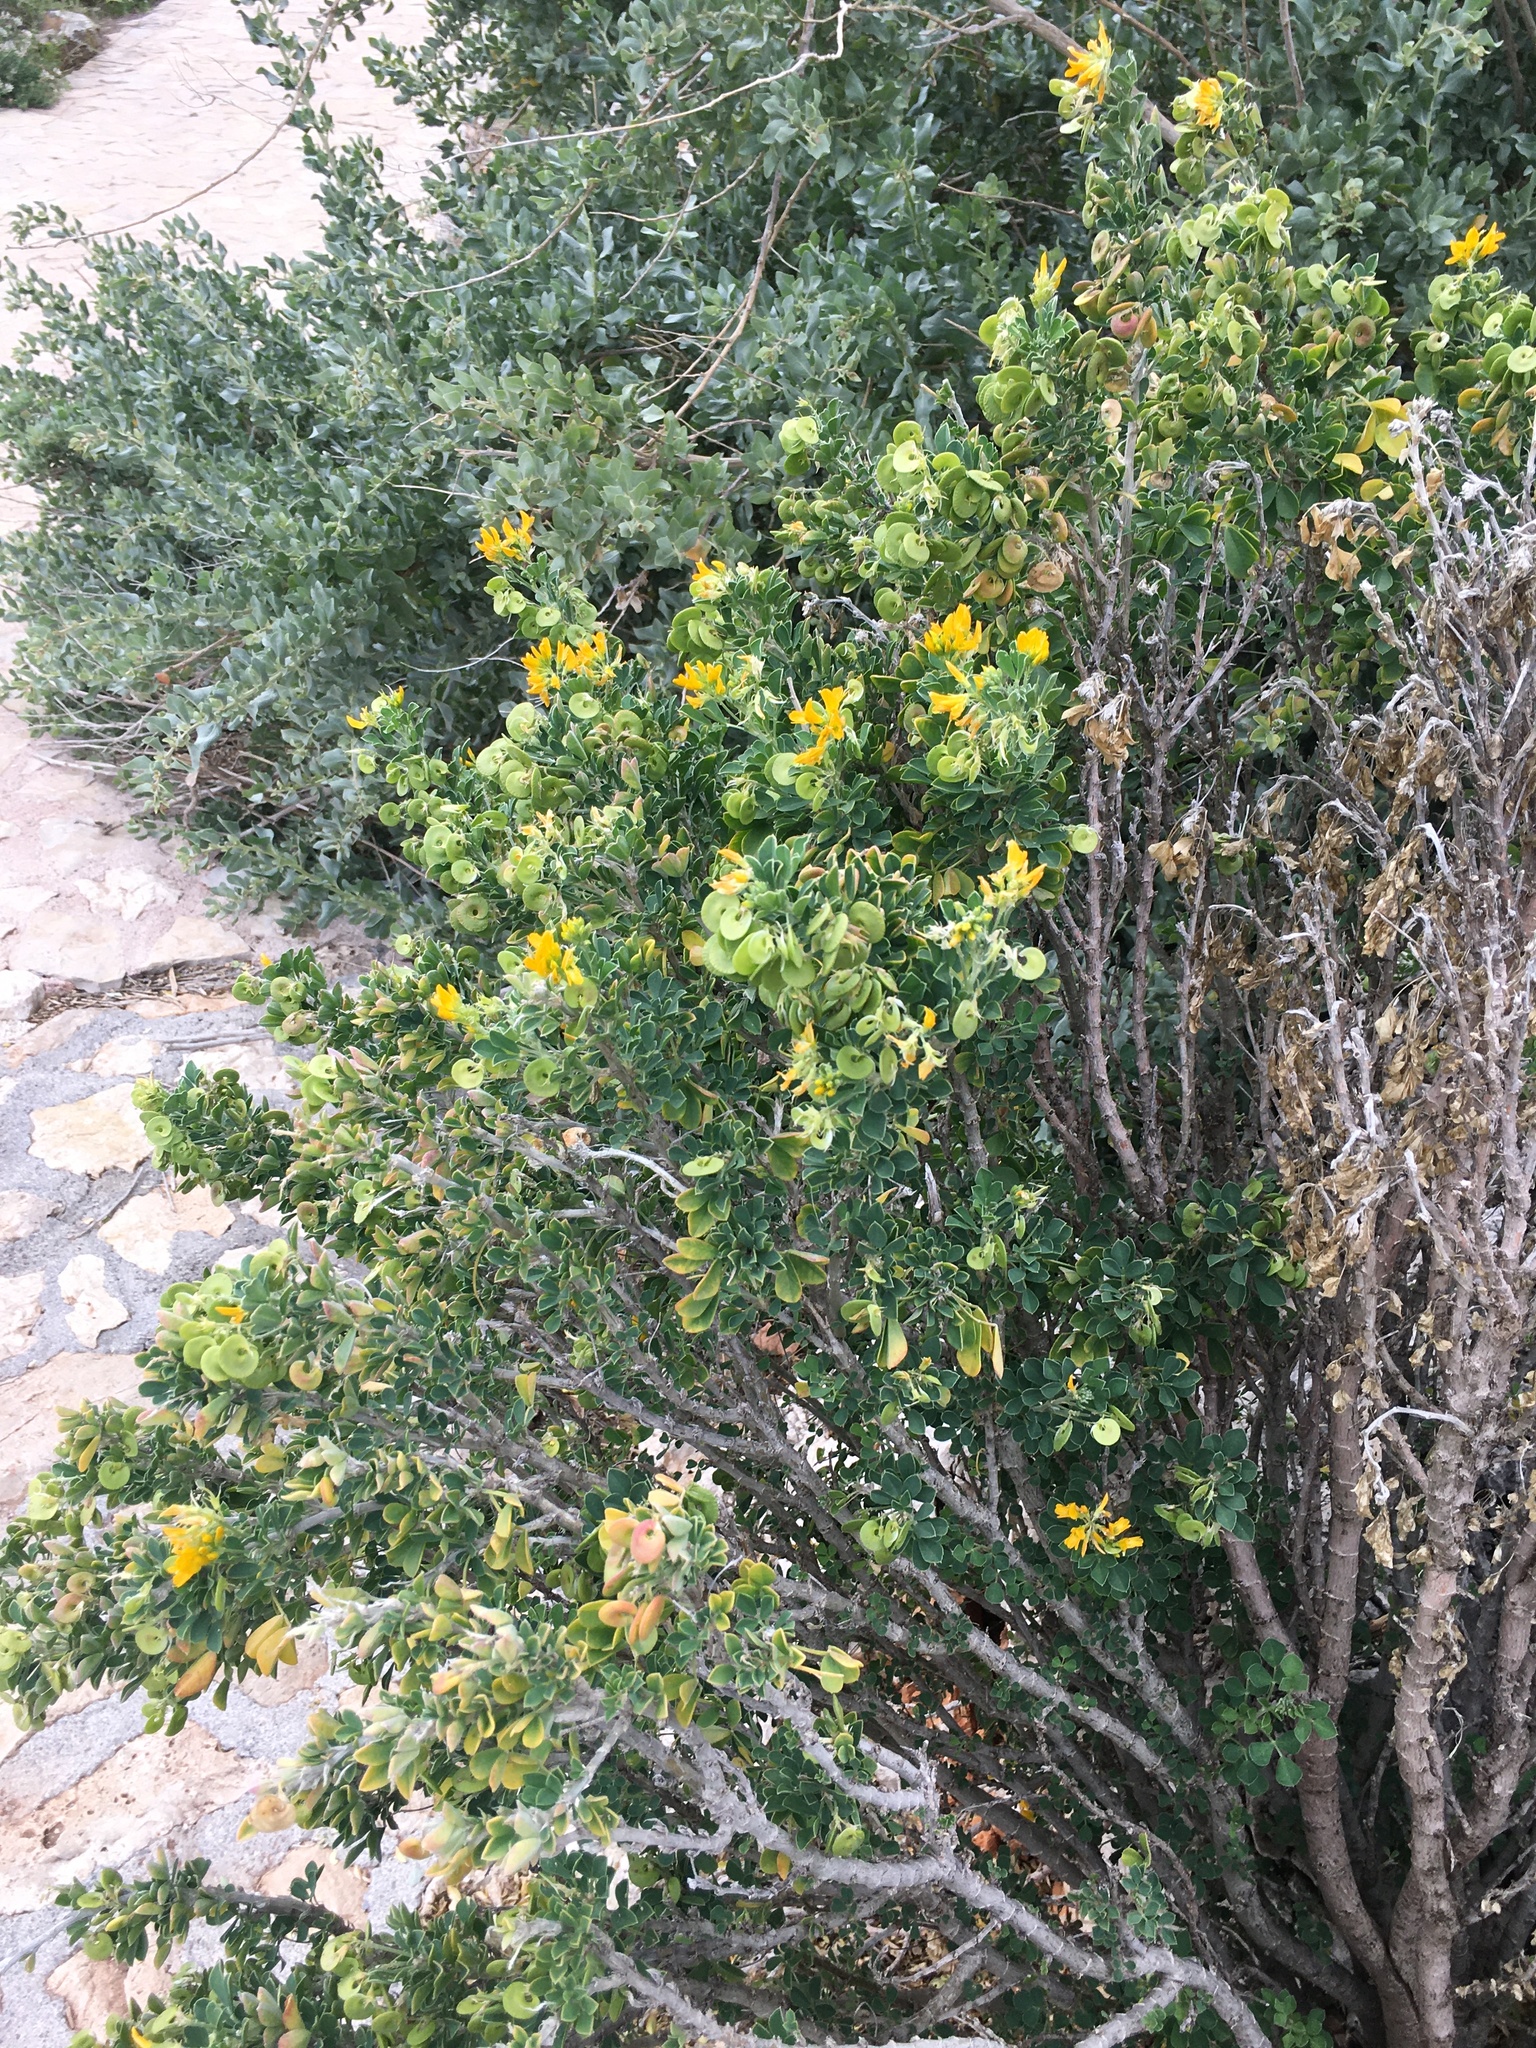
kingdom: Plantae
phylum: Tracheophyta
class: Magnoliopsida
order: Fabales
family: Fabaceae
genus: Medicago
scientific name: Medicago arborea
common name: Moon trefoil
